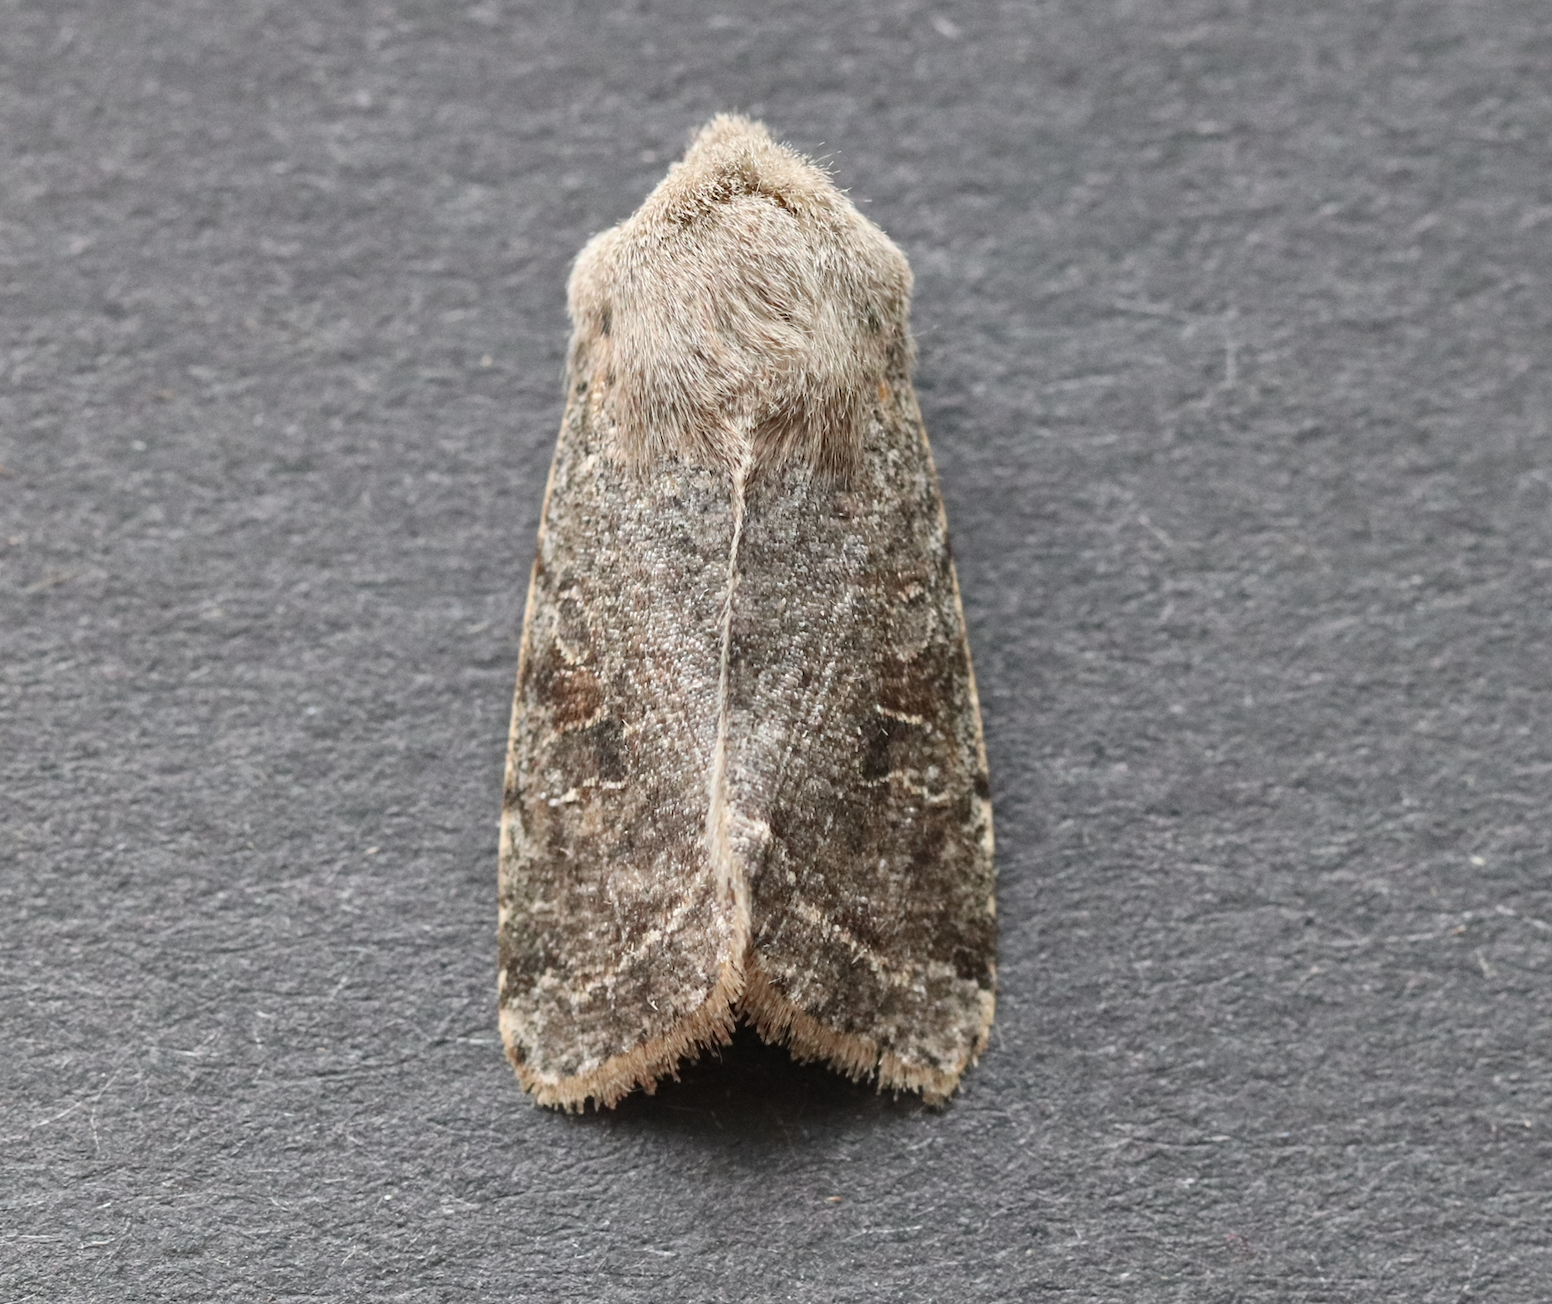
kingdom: Animalia
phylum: Arthropoda
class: Insecta
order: Lepidoptera
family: Noctuidae
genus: Orthosia
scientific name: Orthosia incerta
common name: Clouded drab
